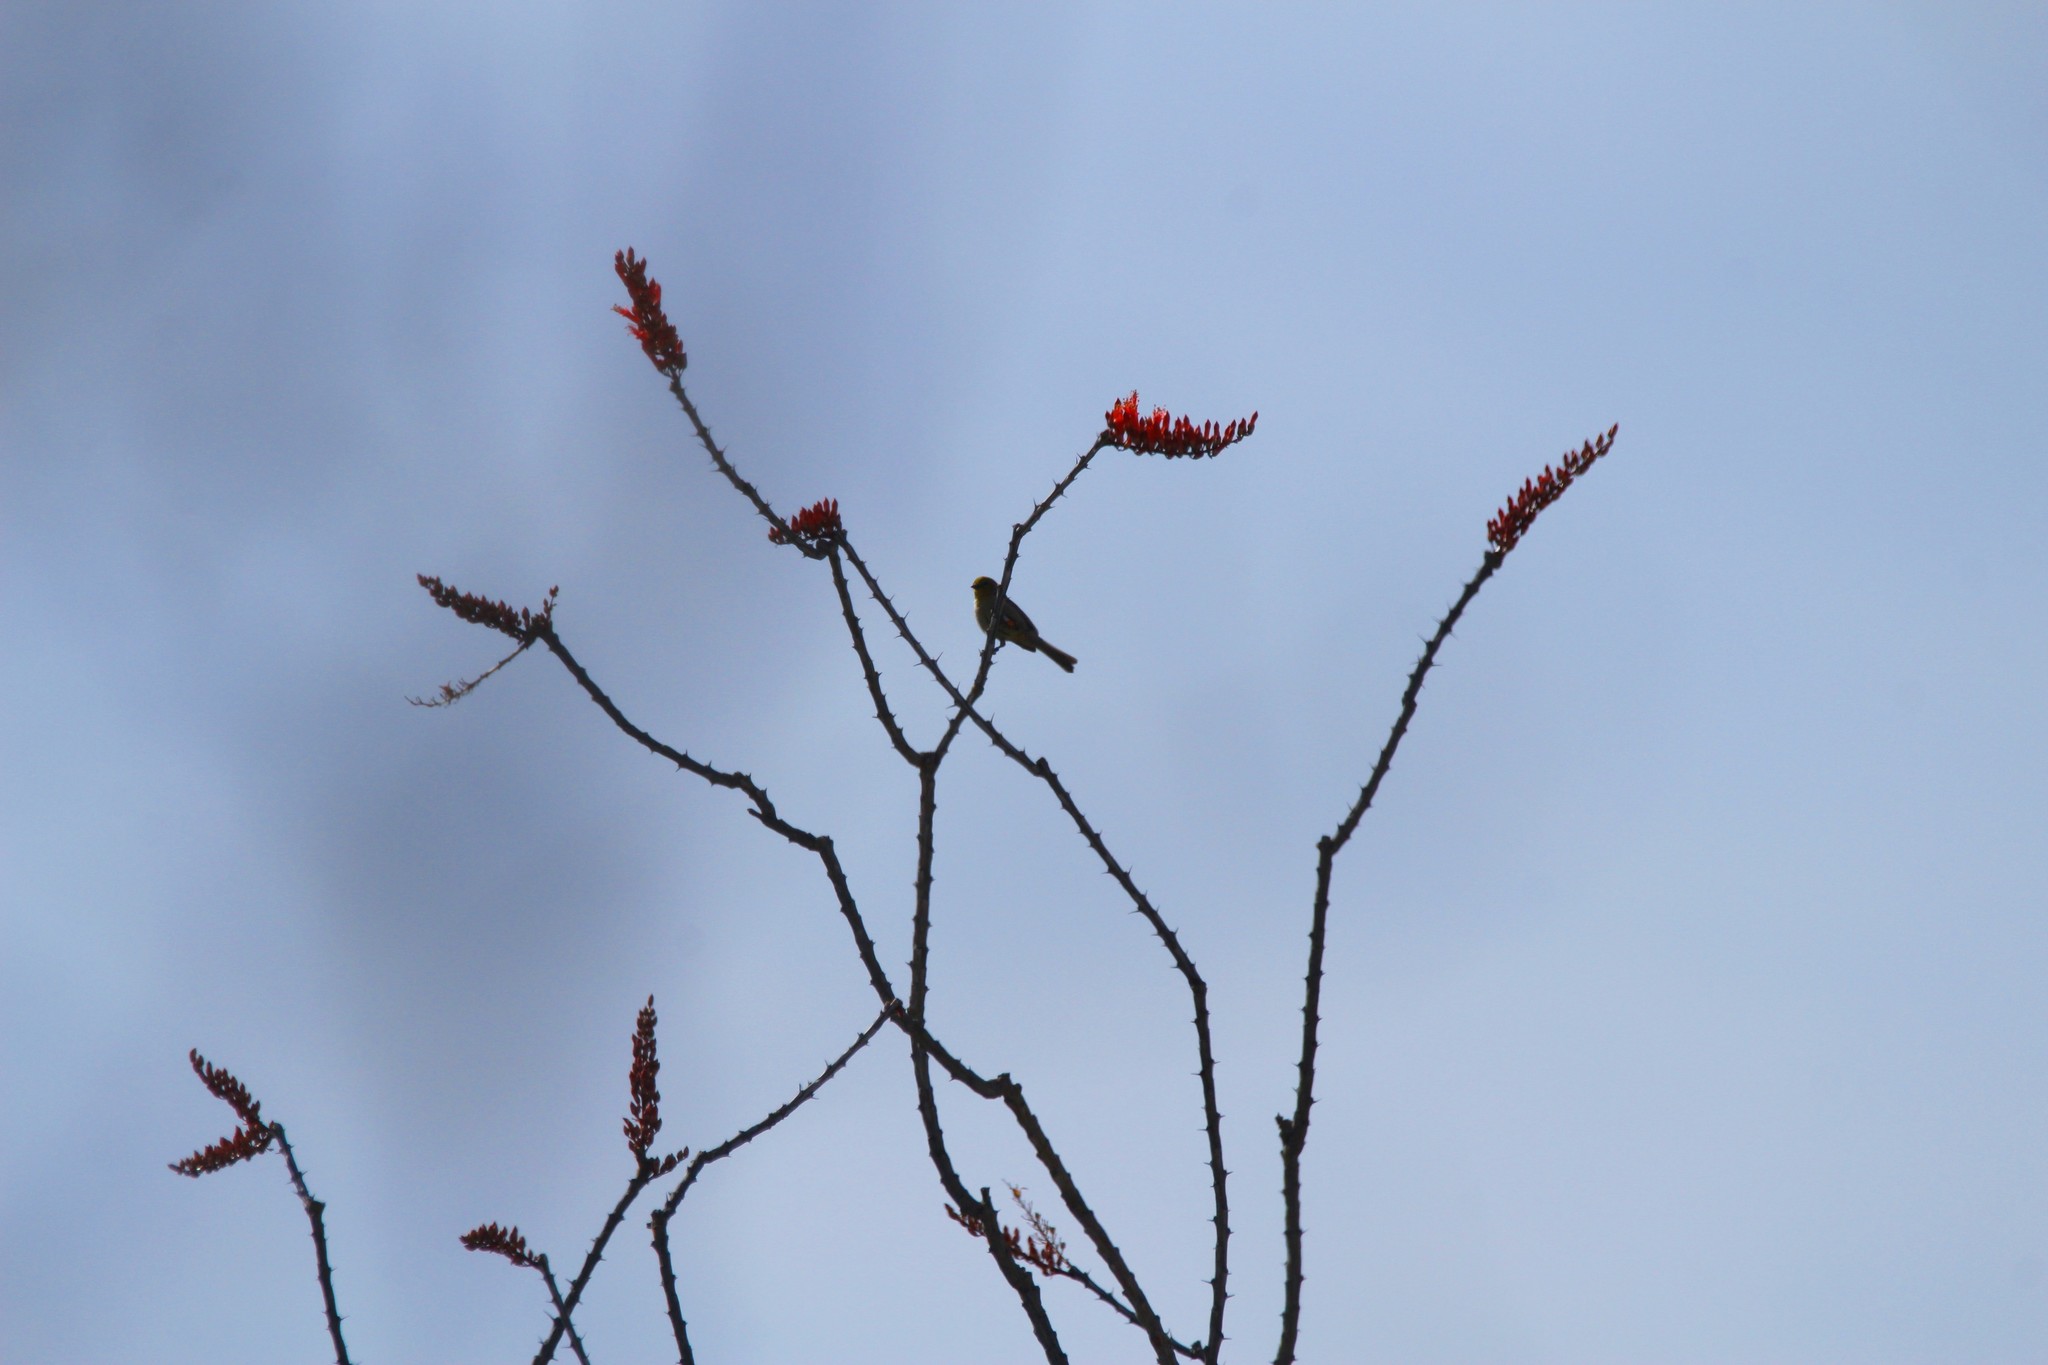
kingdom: Animalia
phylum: Chordata
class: Aves
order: Passeriformes
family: Remizidae
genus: Auriparus
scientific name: Auriparus flaviceps
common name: Verdin
